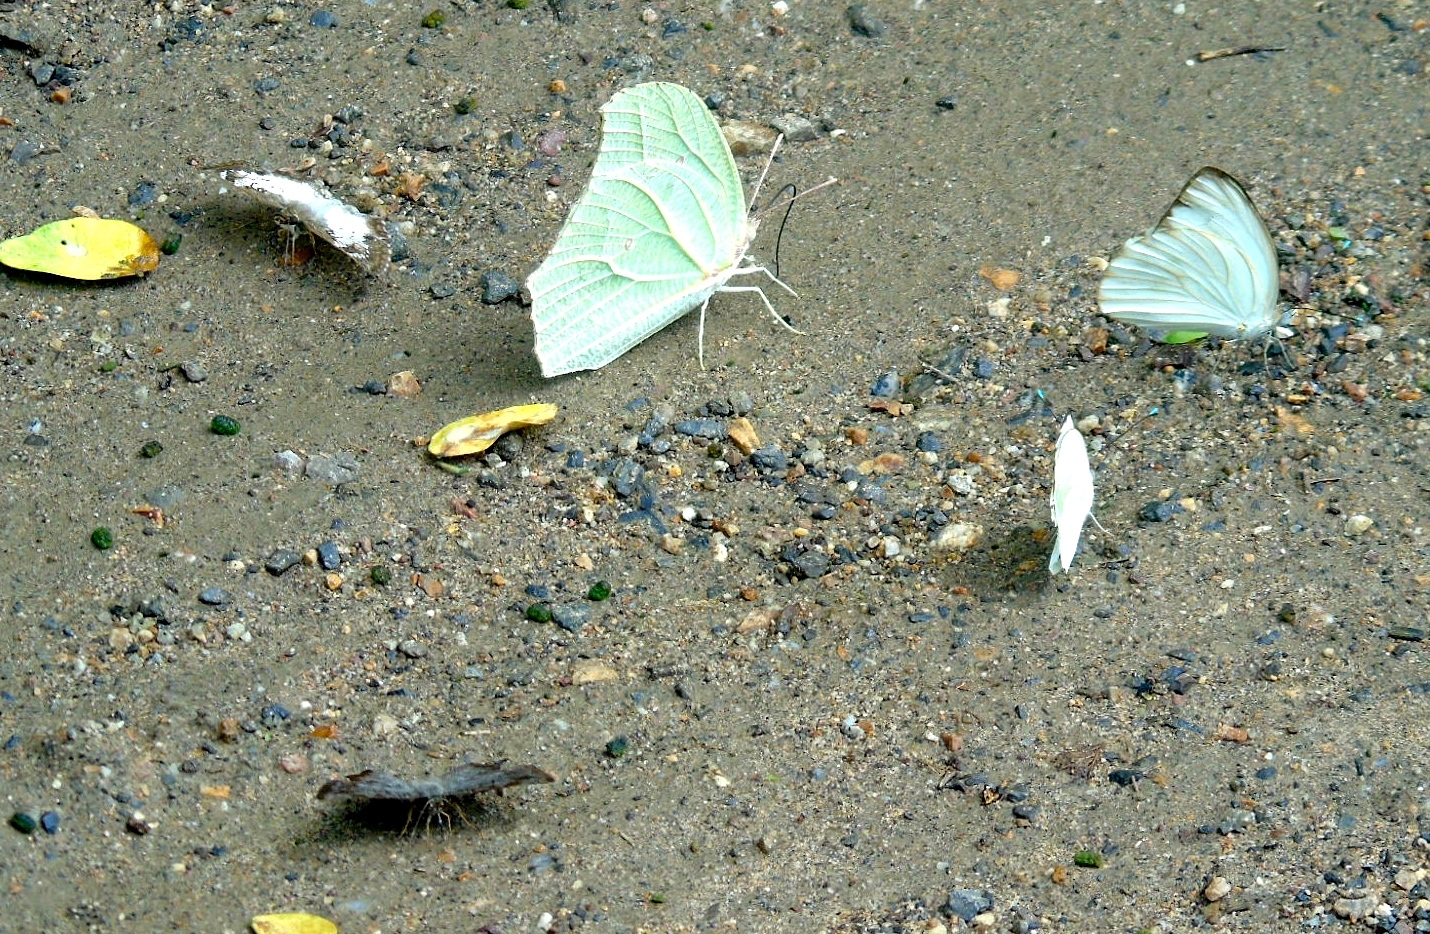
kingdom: Animalia
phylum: Arthropoda
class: Insecta
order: Lepidoptera
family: Pieridae
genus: Anteos
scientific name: Anteos clorinde
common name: White angled sulphur
